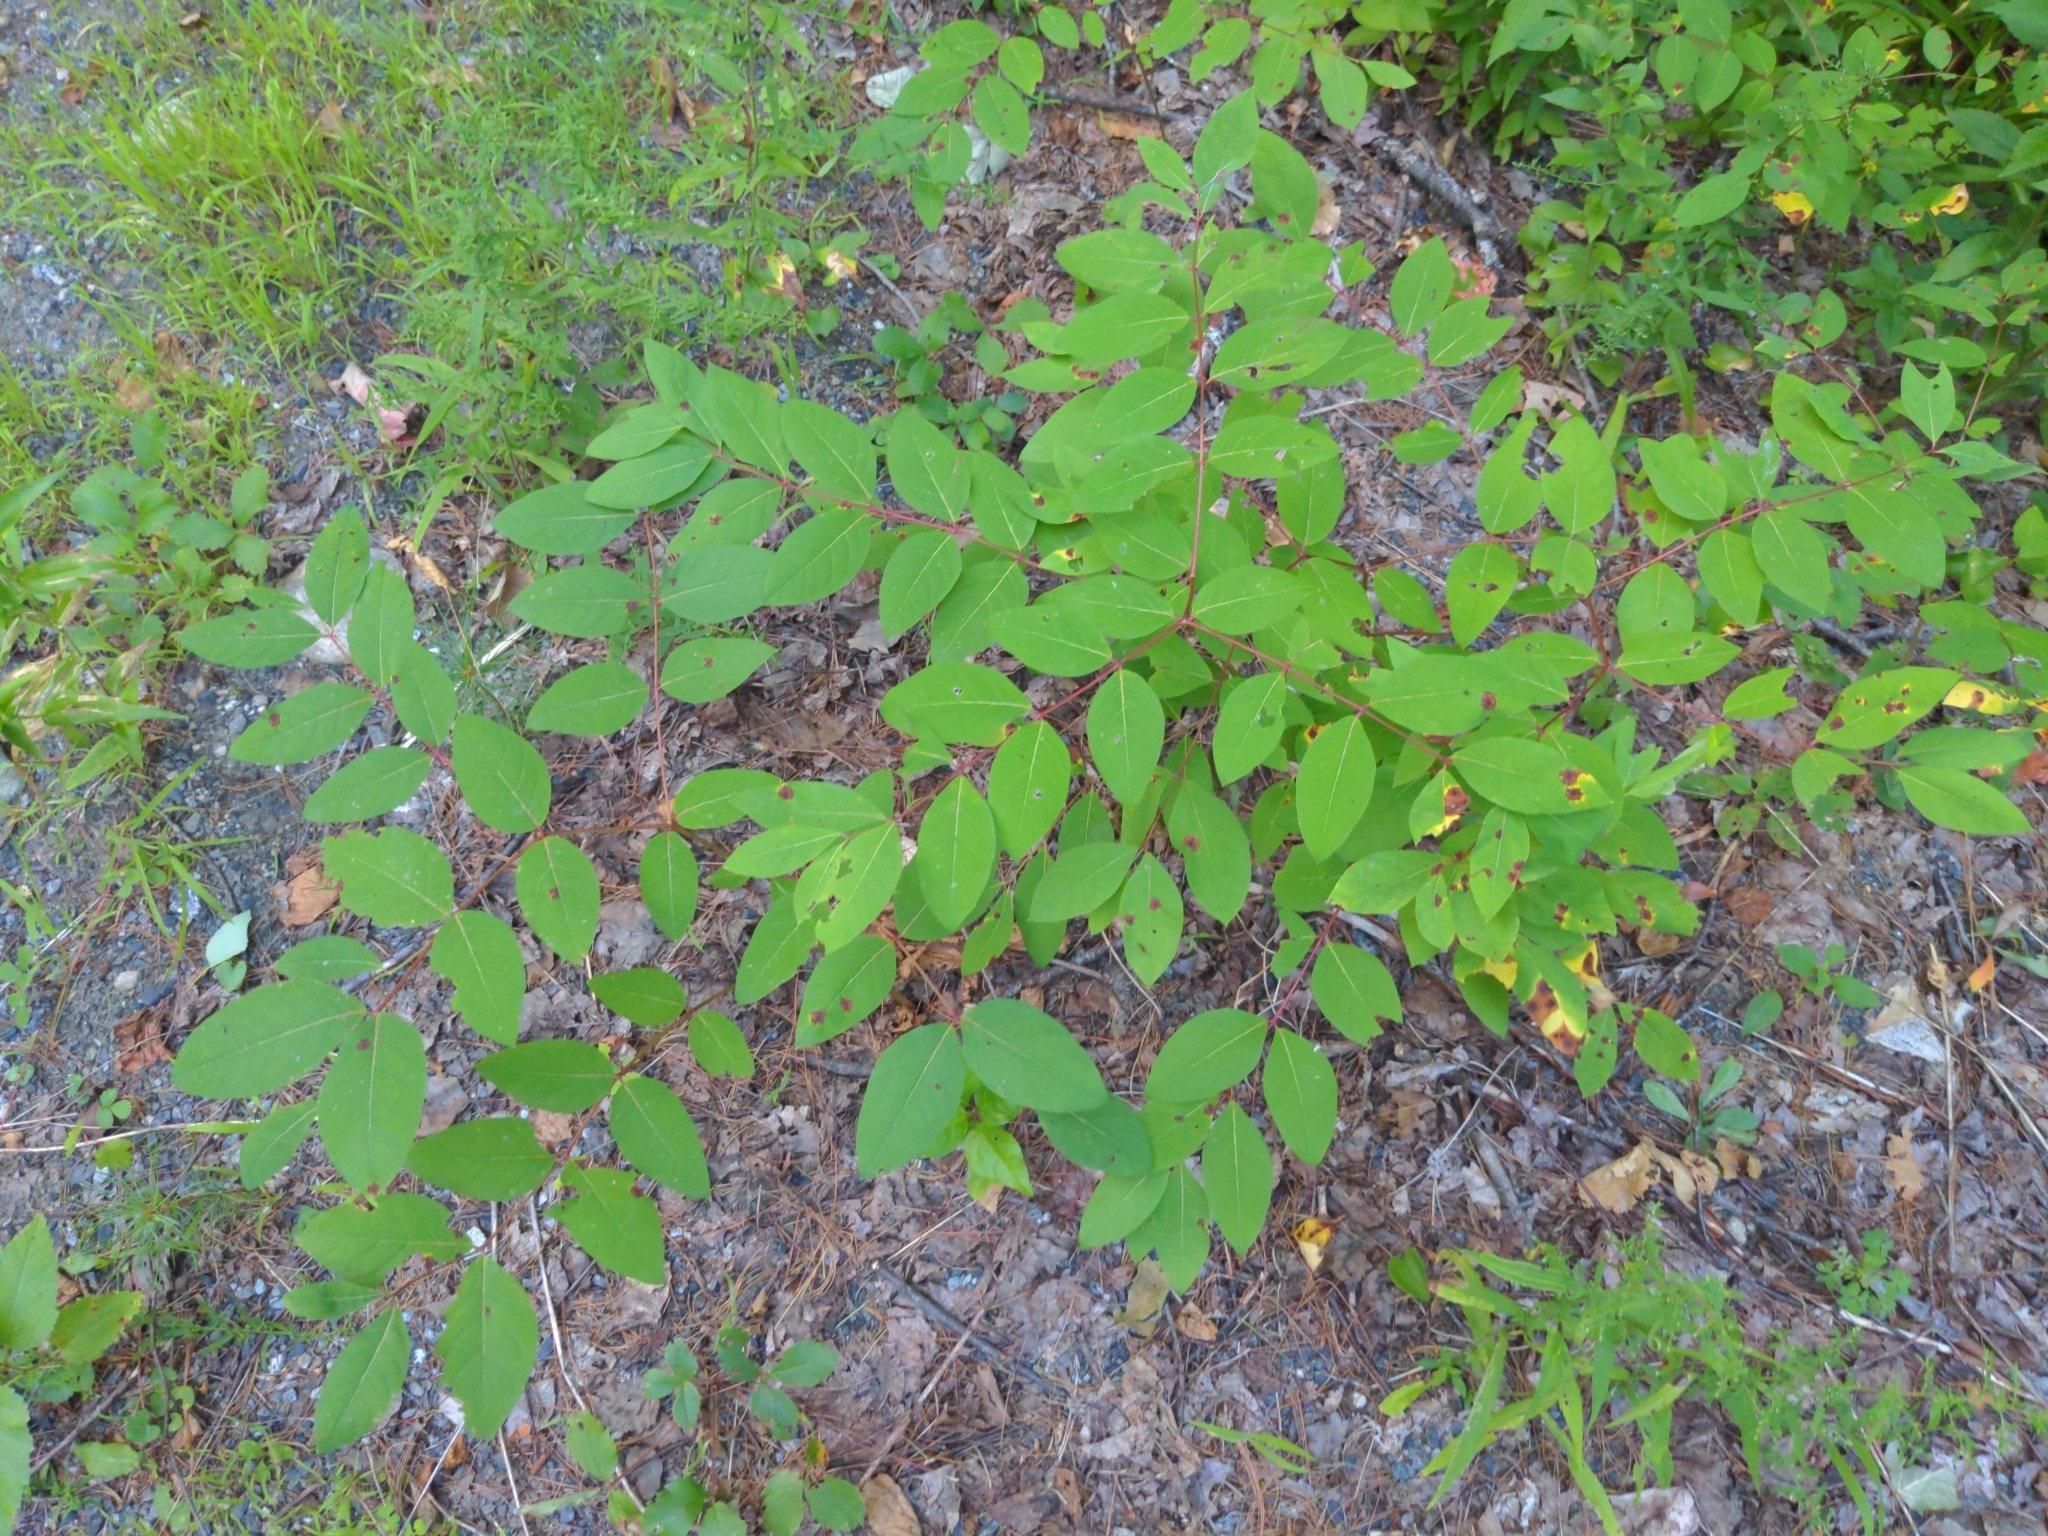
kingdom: Plantae
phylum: Tracheophyta
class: Magnoliopsida
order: Gentianales
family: Apocynaceae
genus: Apocynum
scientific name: Apocynum androsaemifolium
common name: Spreading dogbane
